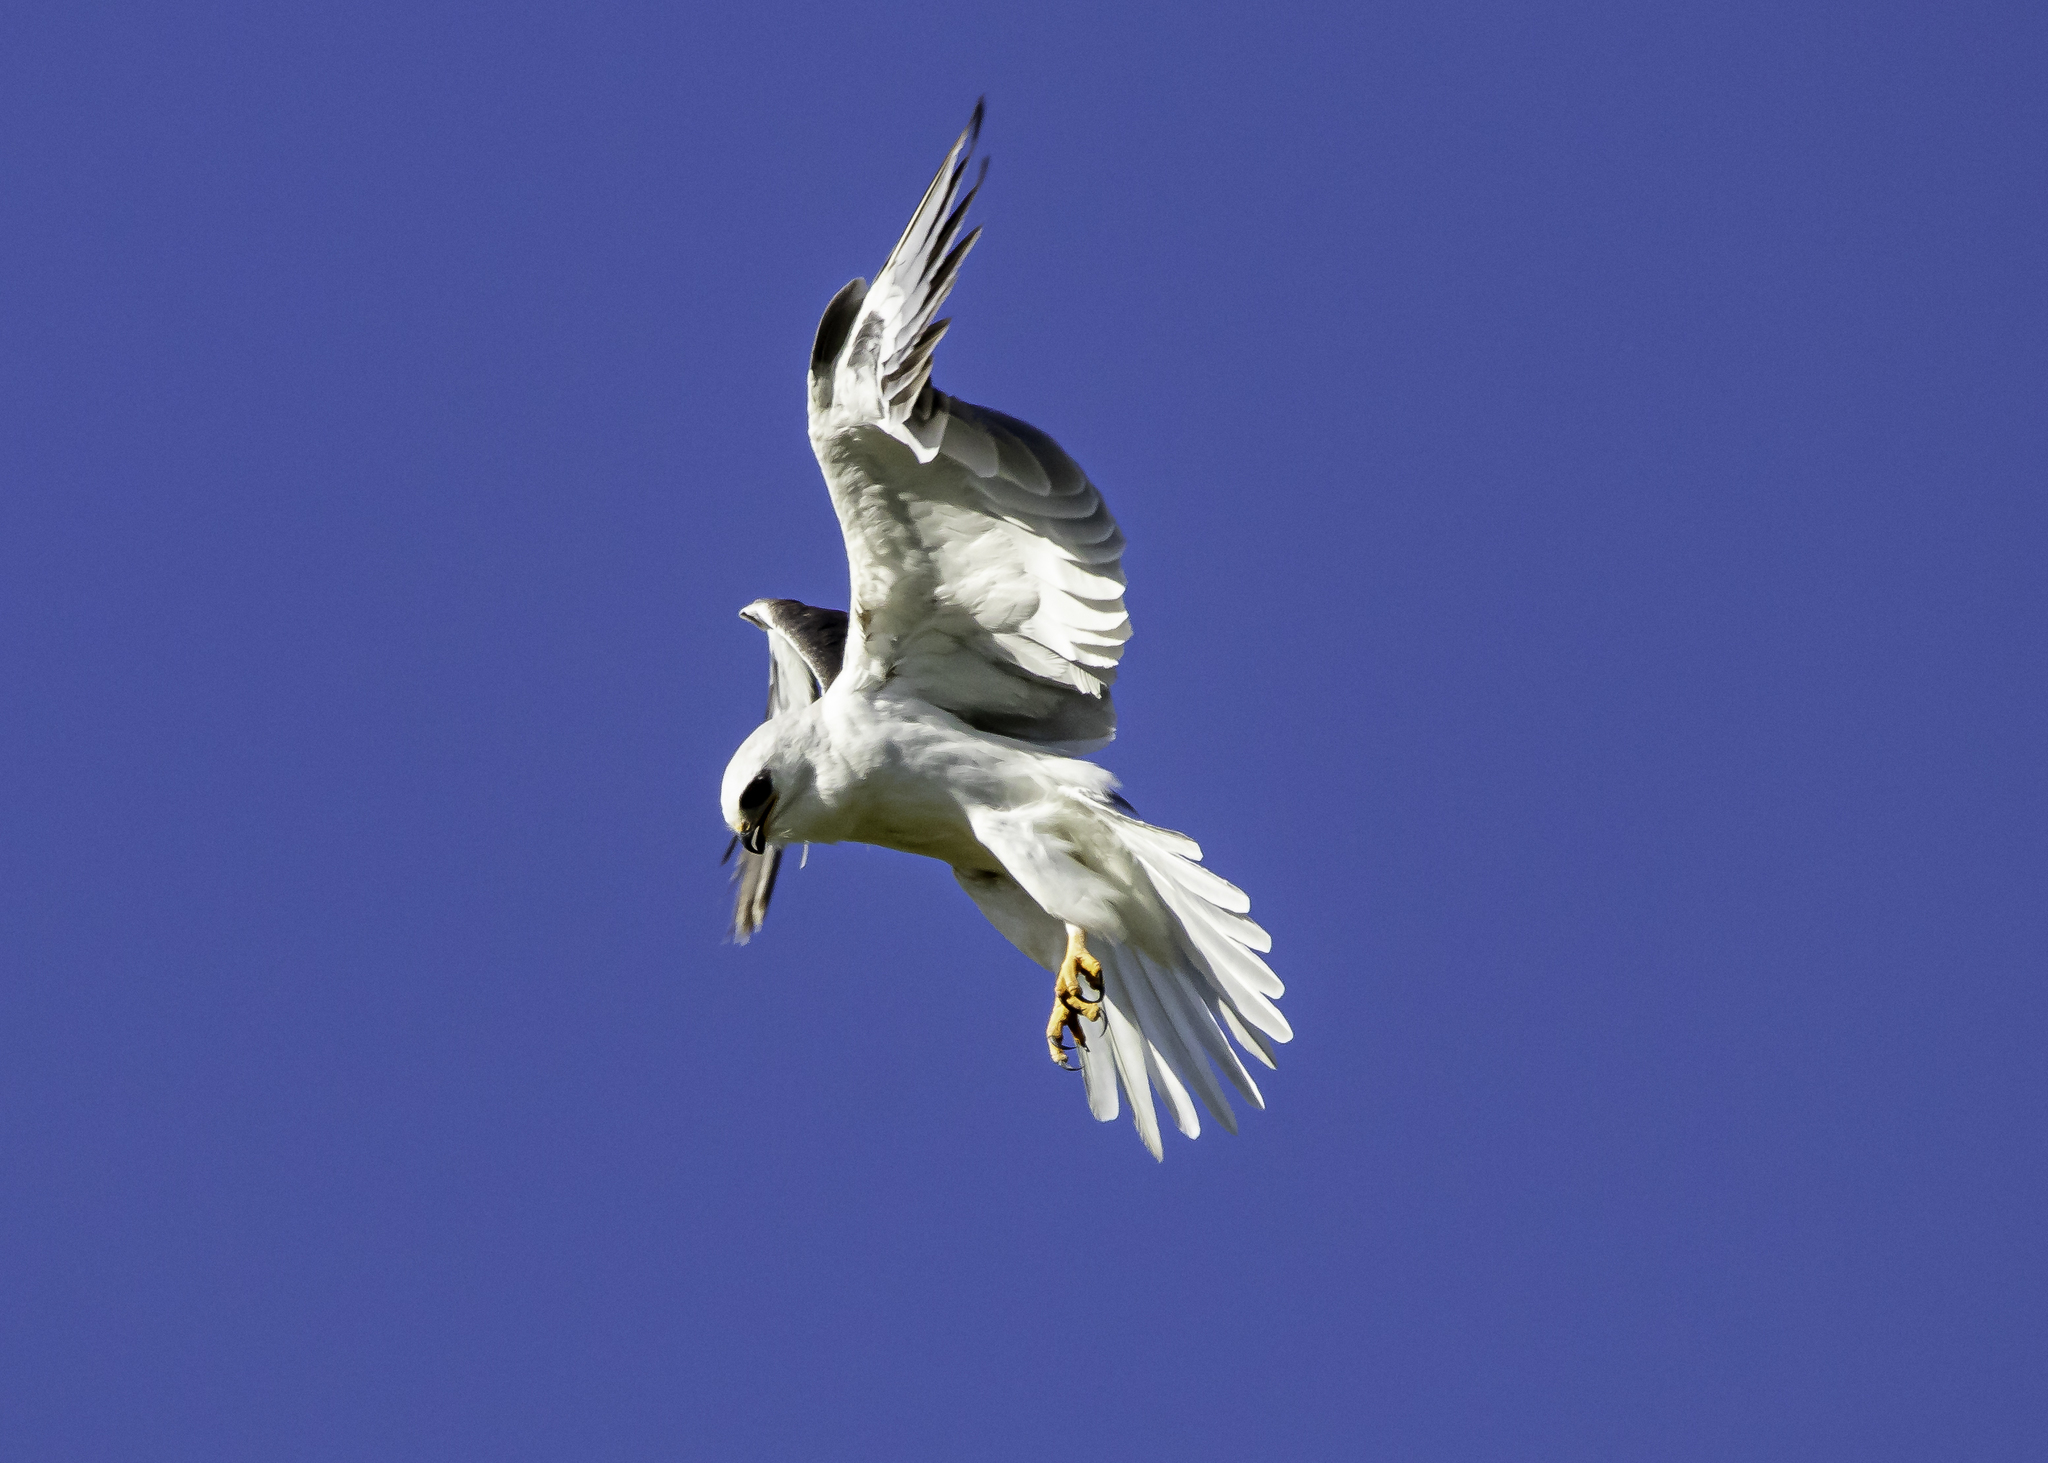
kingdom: Animalia
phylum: Chordata
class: Aves
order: Accipitriformes
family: Accipitridae
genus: Elanus
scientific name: Elanus leucurus
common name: White-tailed kite
